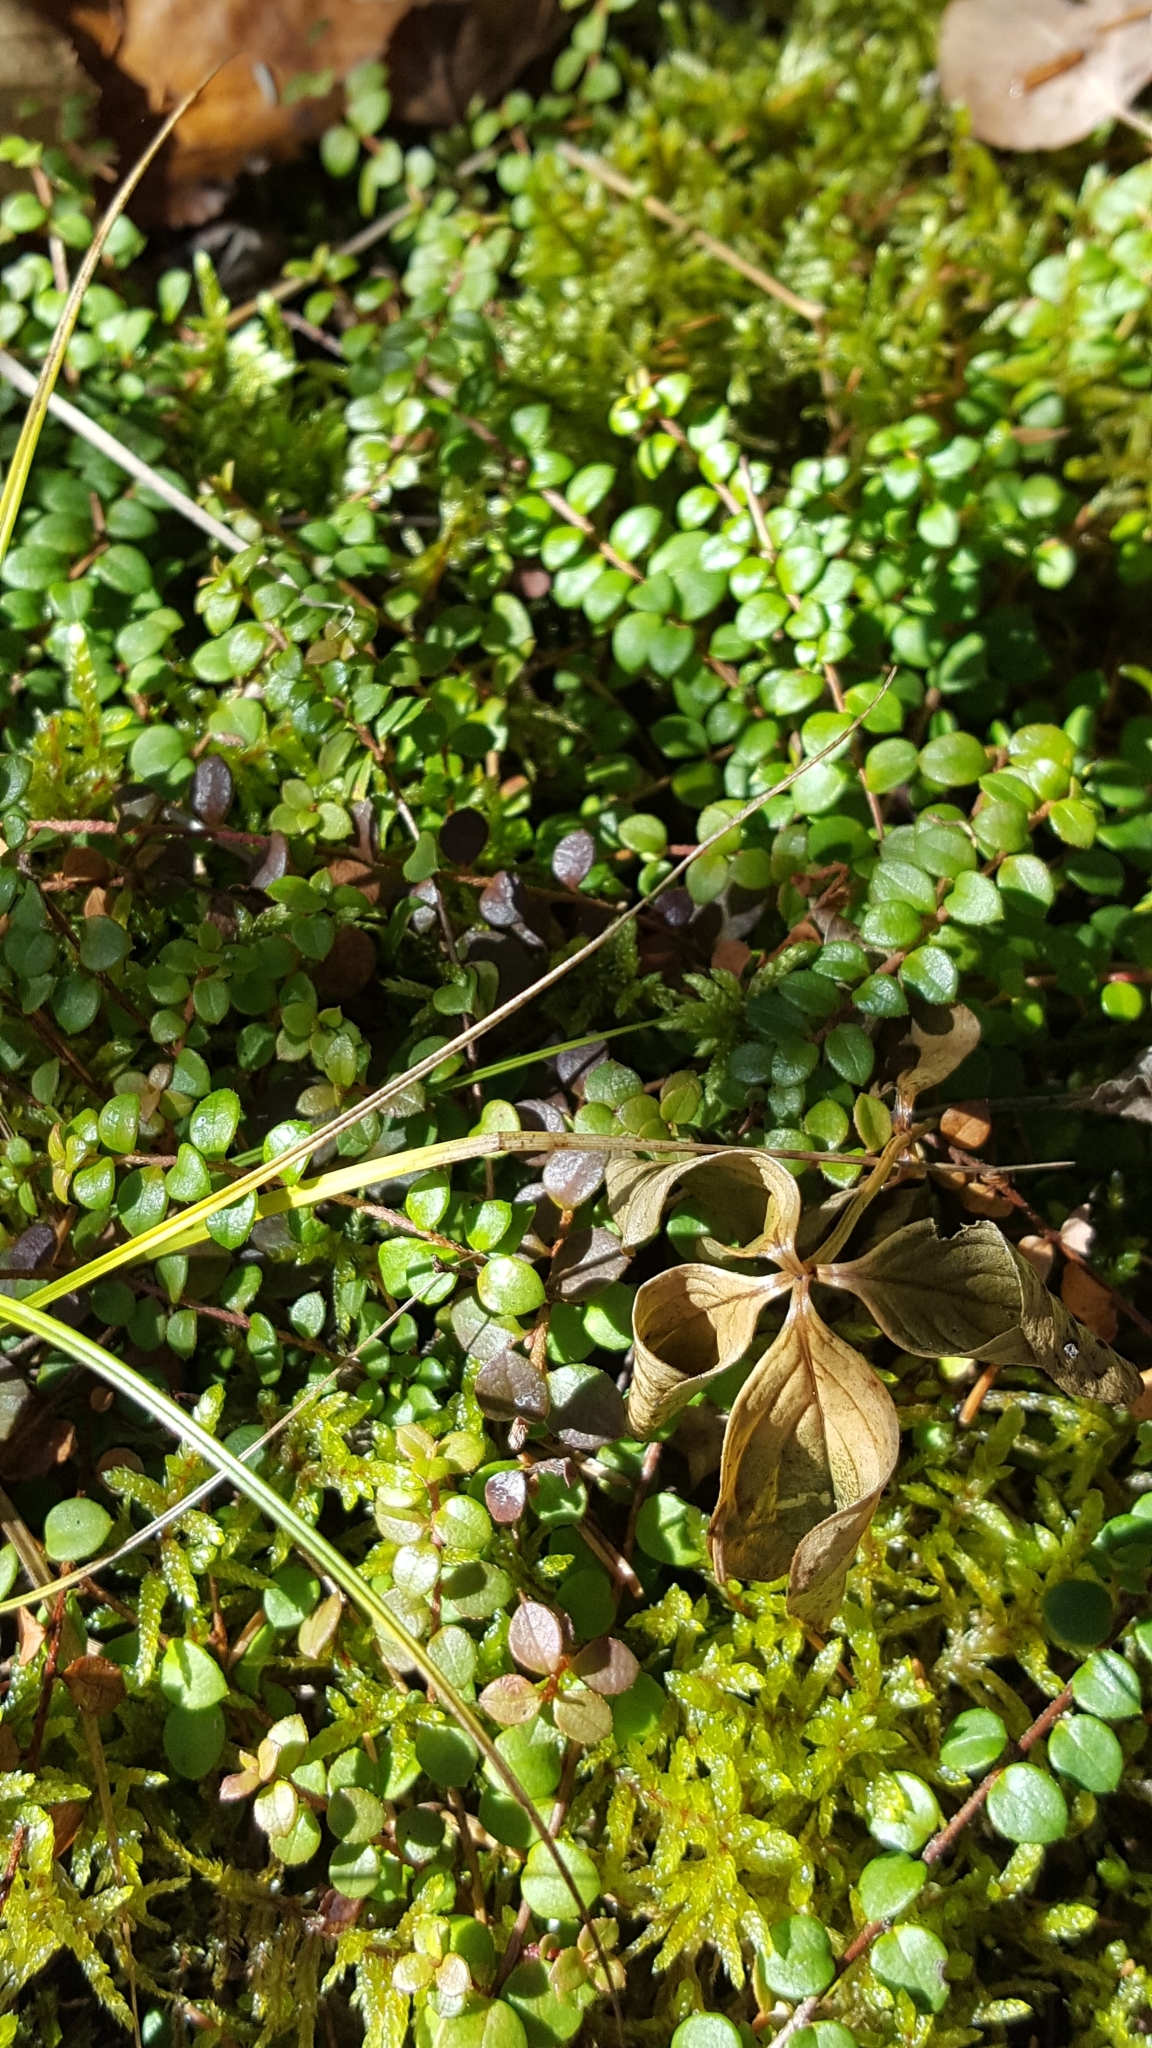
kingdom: Plantae
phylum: Tracheophyta
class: Magnoliopsida
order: Ericales
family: Ericaceae
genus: Gaultheria
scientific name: Gaultheria hispidula
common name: Cancer wintergreen
